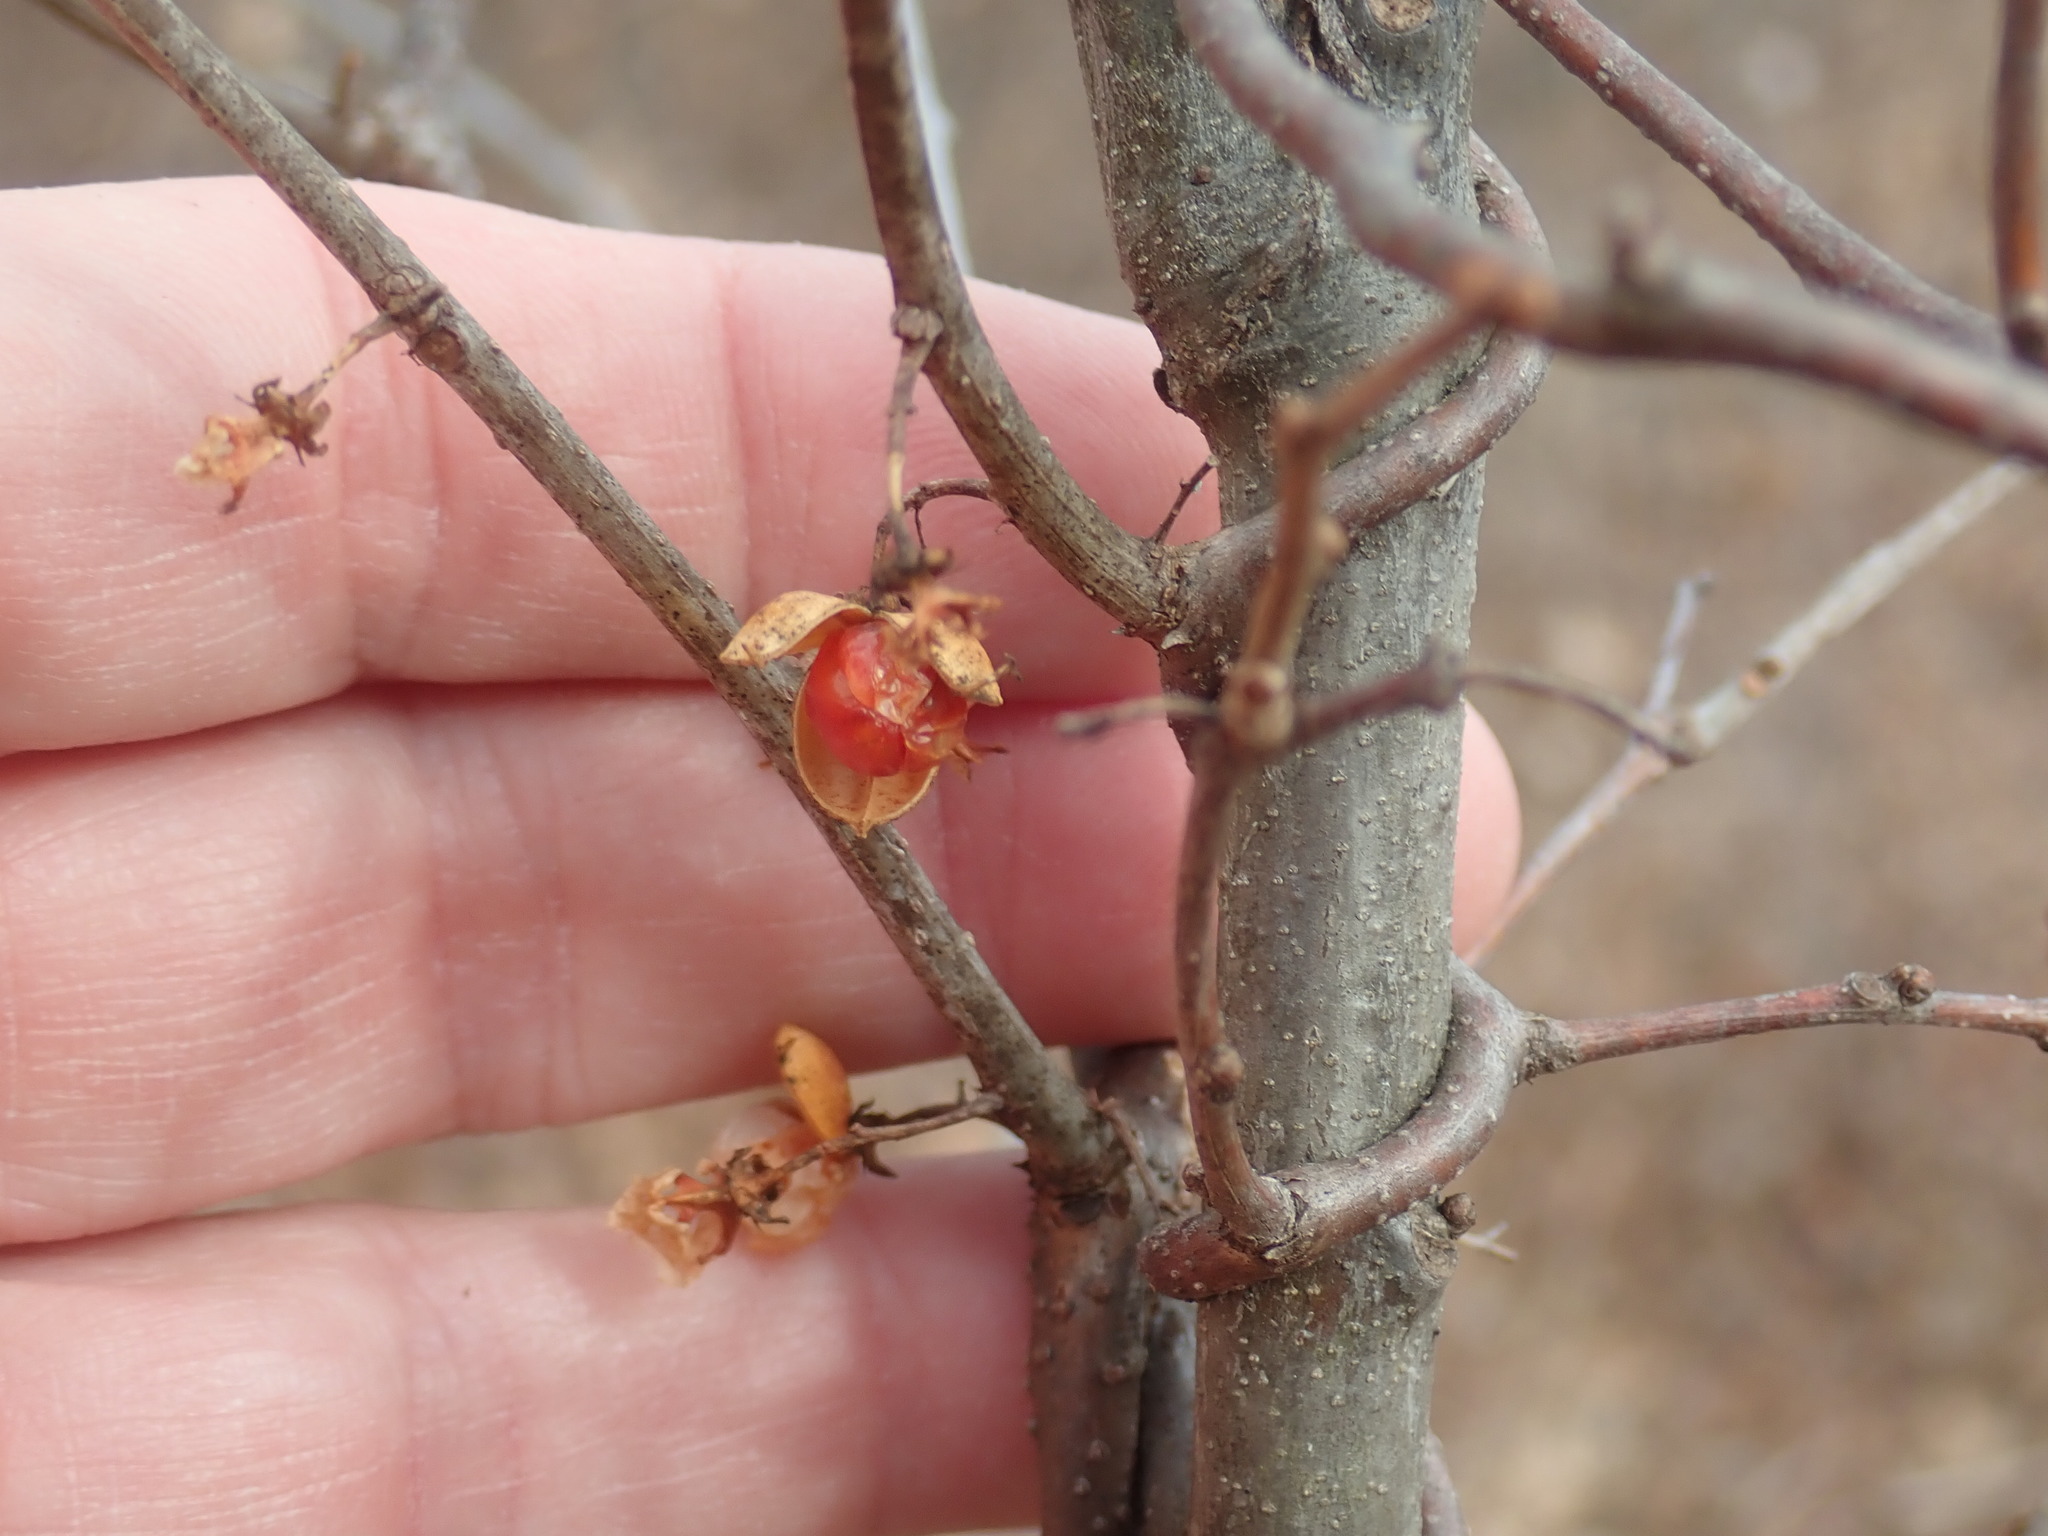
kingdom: Plantae
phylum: Tracheophyta
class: Magnoliopsida
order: Celastrales
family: Celastraceae
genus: Celastrus
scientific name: Celastrus orbiculatus
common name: Oriental bittersweet
